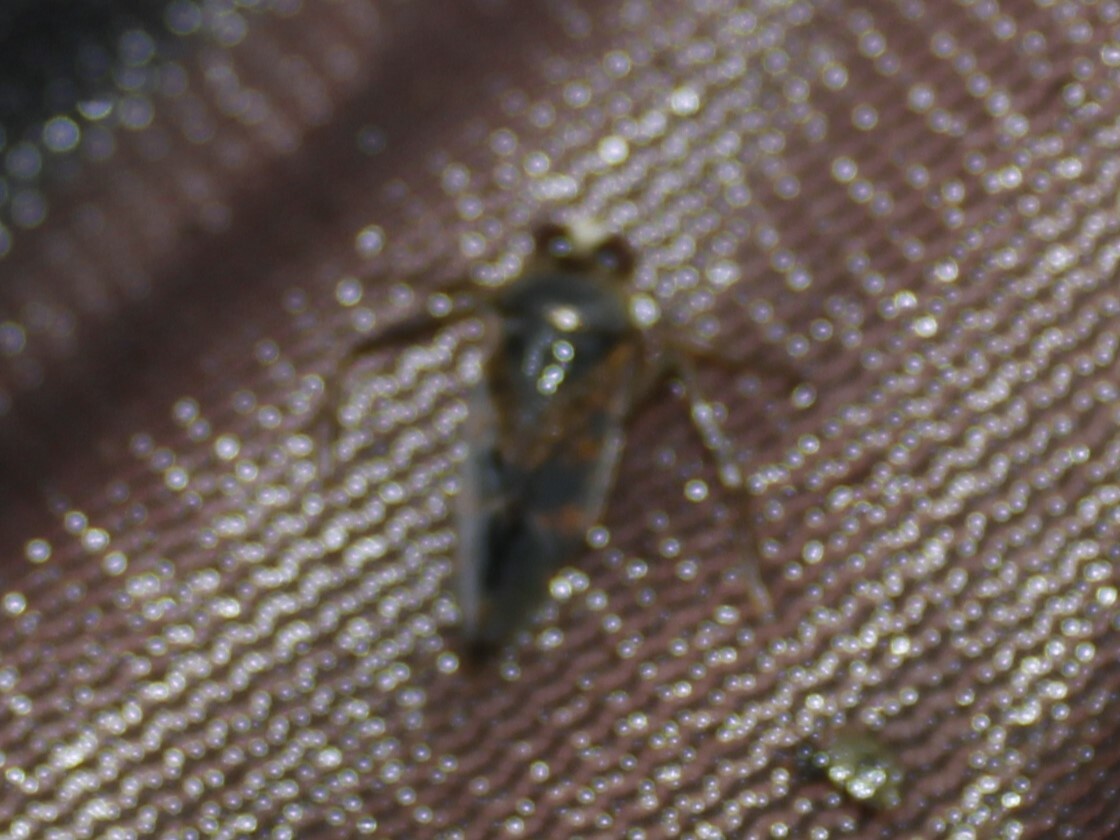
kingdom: Animalia
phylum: Arthropoda
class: Insecta
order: Hemiptera
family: Notonectidae
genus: Notonecta
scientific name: Notonecta irrorata
